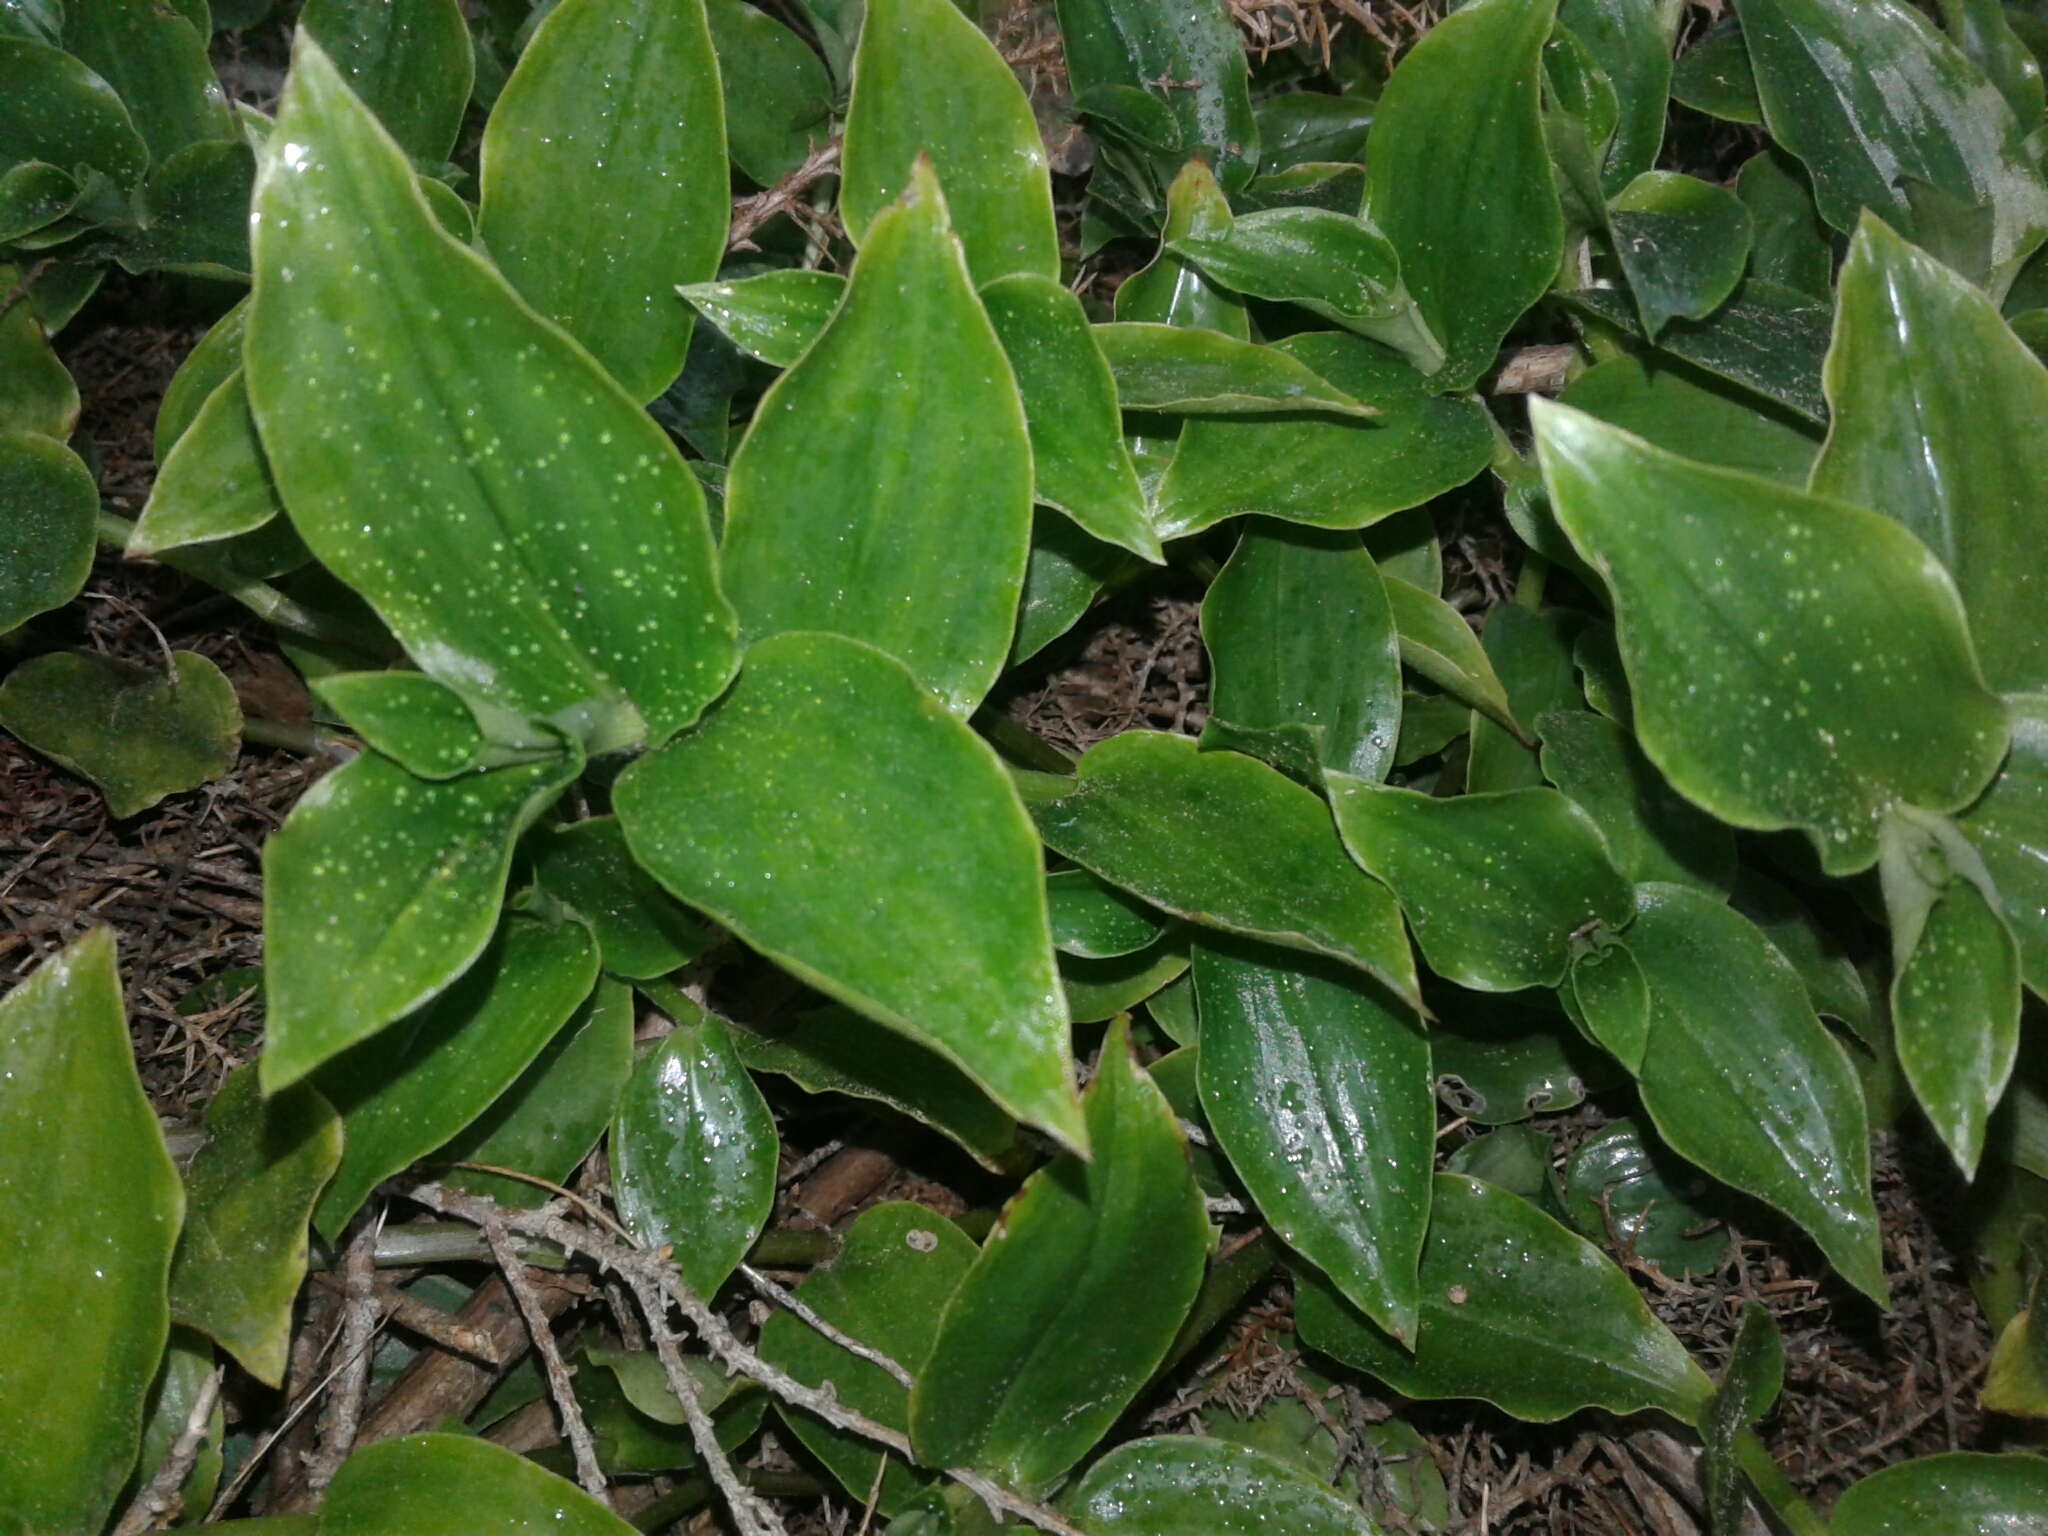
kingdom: Plantae
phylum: Tracheophyta
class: Liliopsida
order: Commelinales
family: Commelinaceae
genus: Tradescantia
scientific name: Tradescantia fluminensis
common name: Wandering-jew
